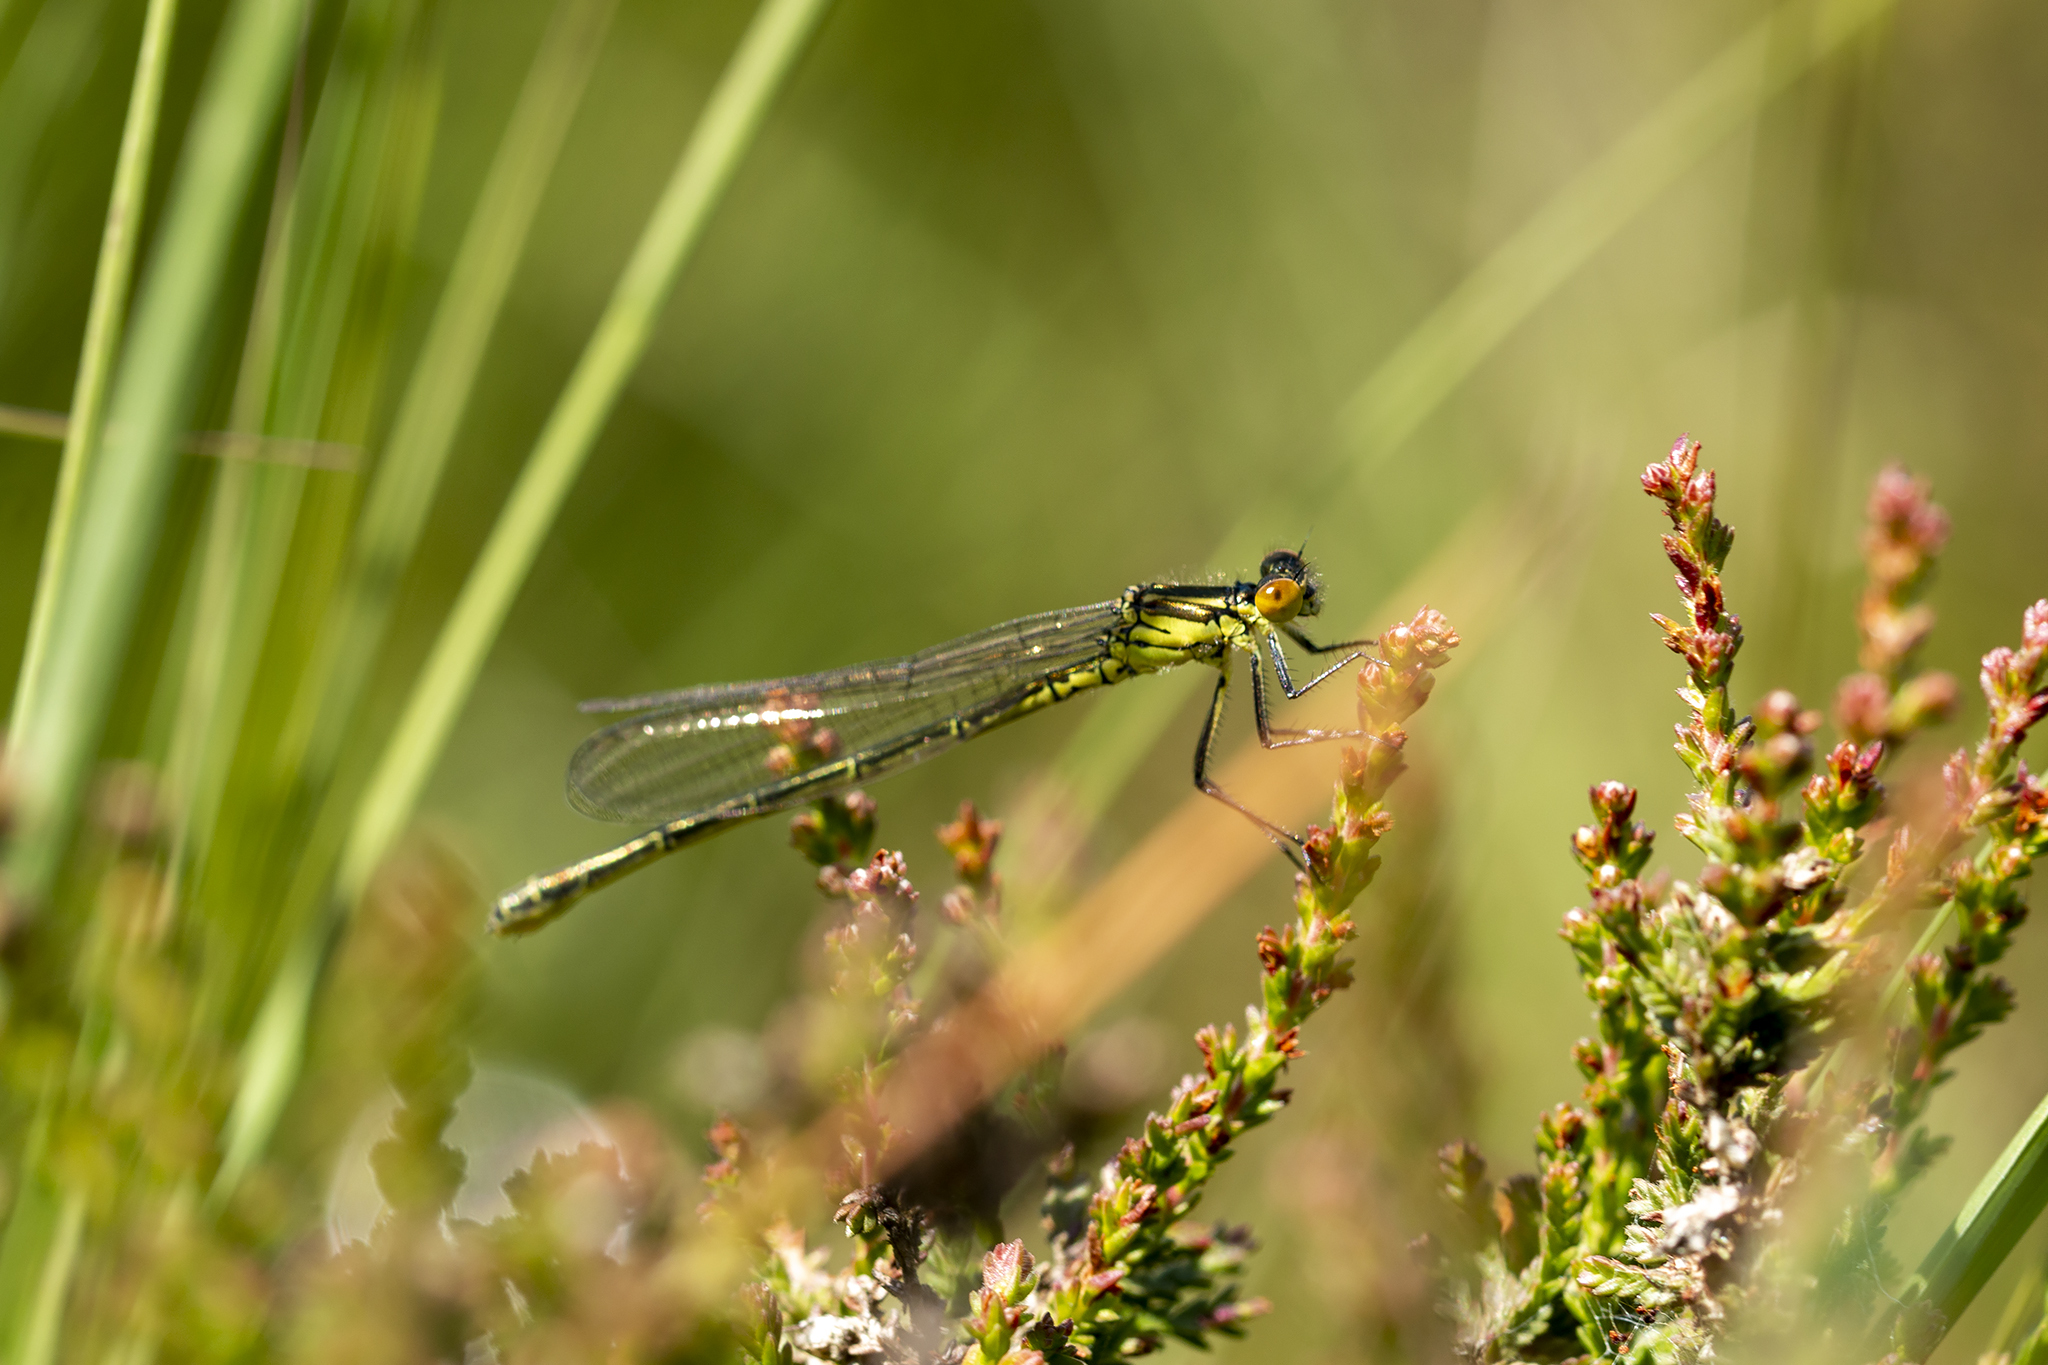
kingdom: Animalia
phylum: Arthropoda
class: Insecta
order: Odonata
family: Coenagrionidae
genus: Erythromma
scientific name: Erythromma najas
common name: Red-eyed damselfly
